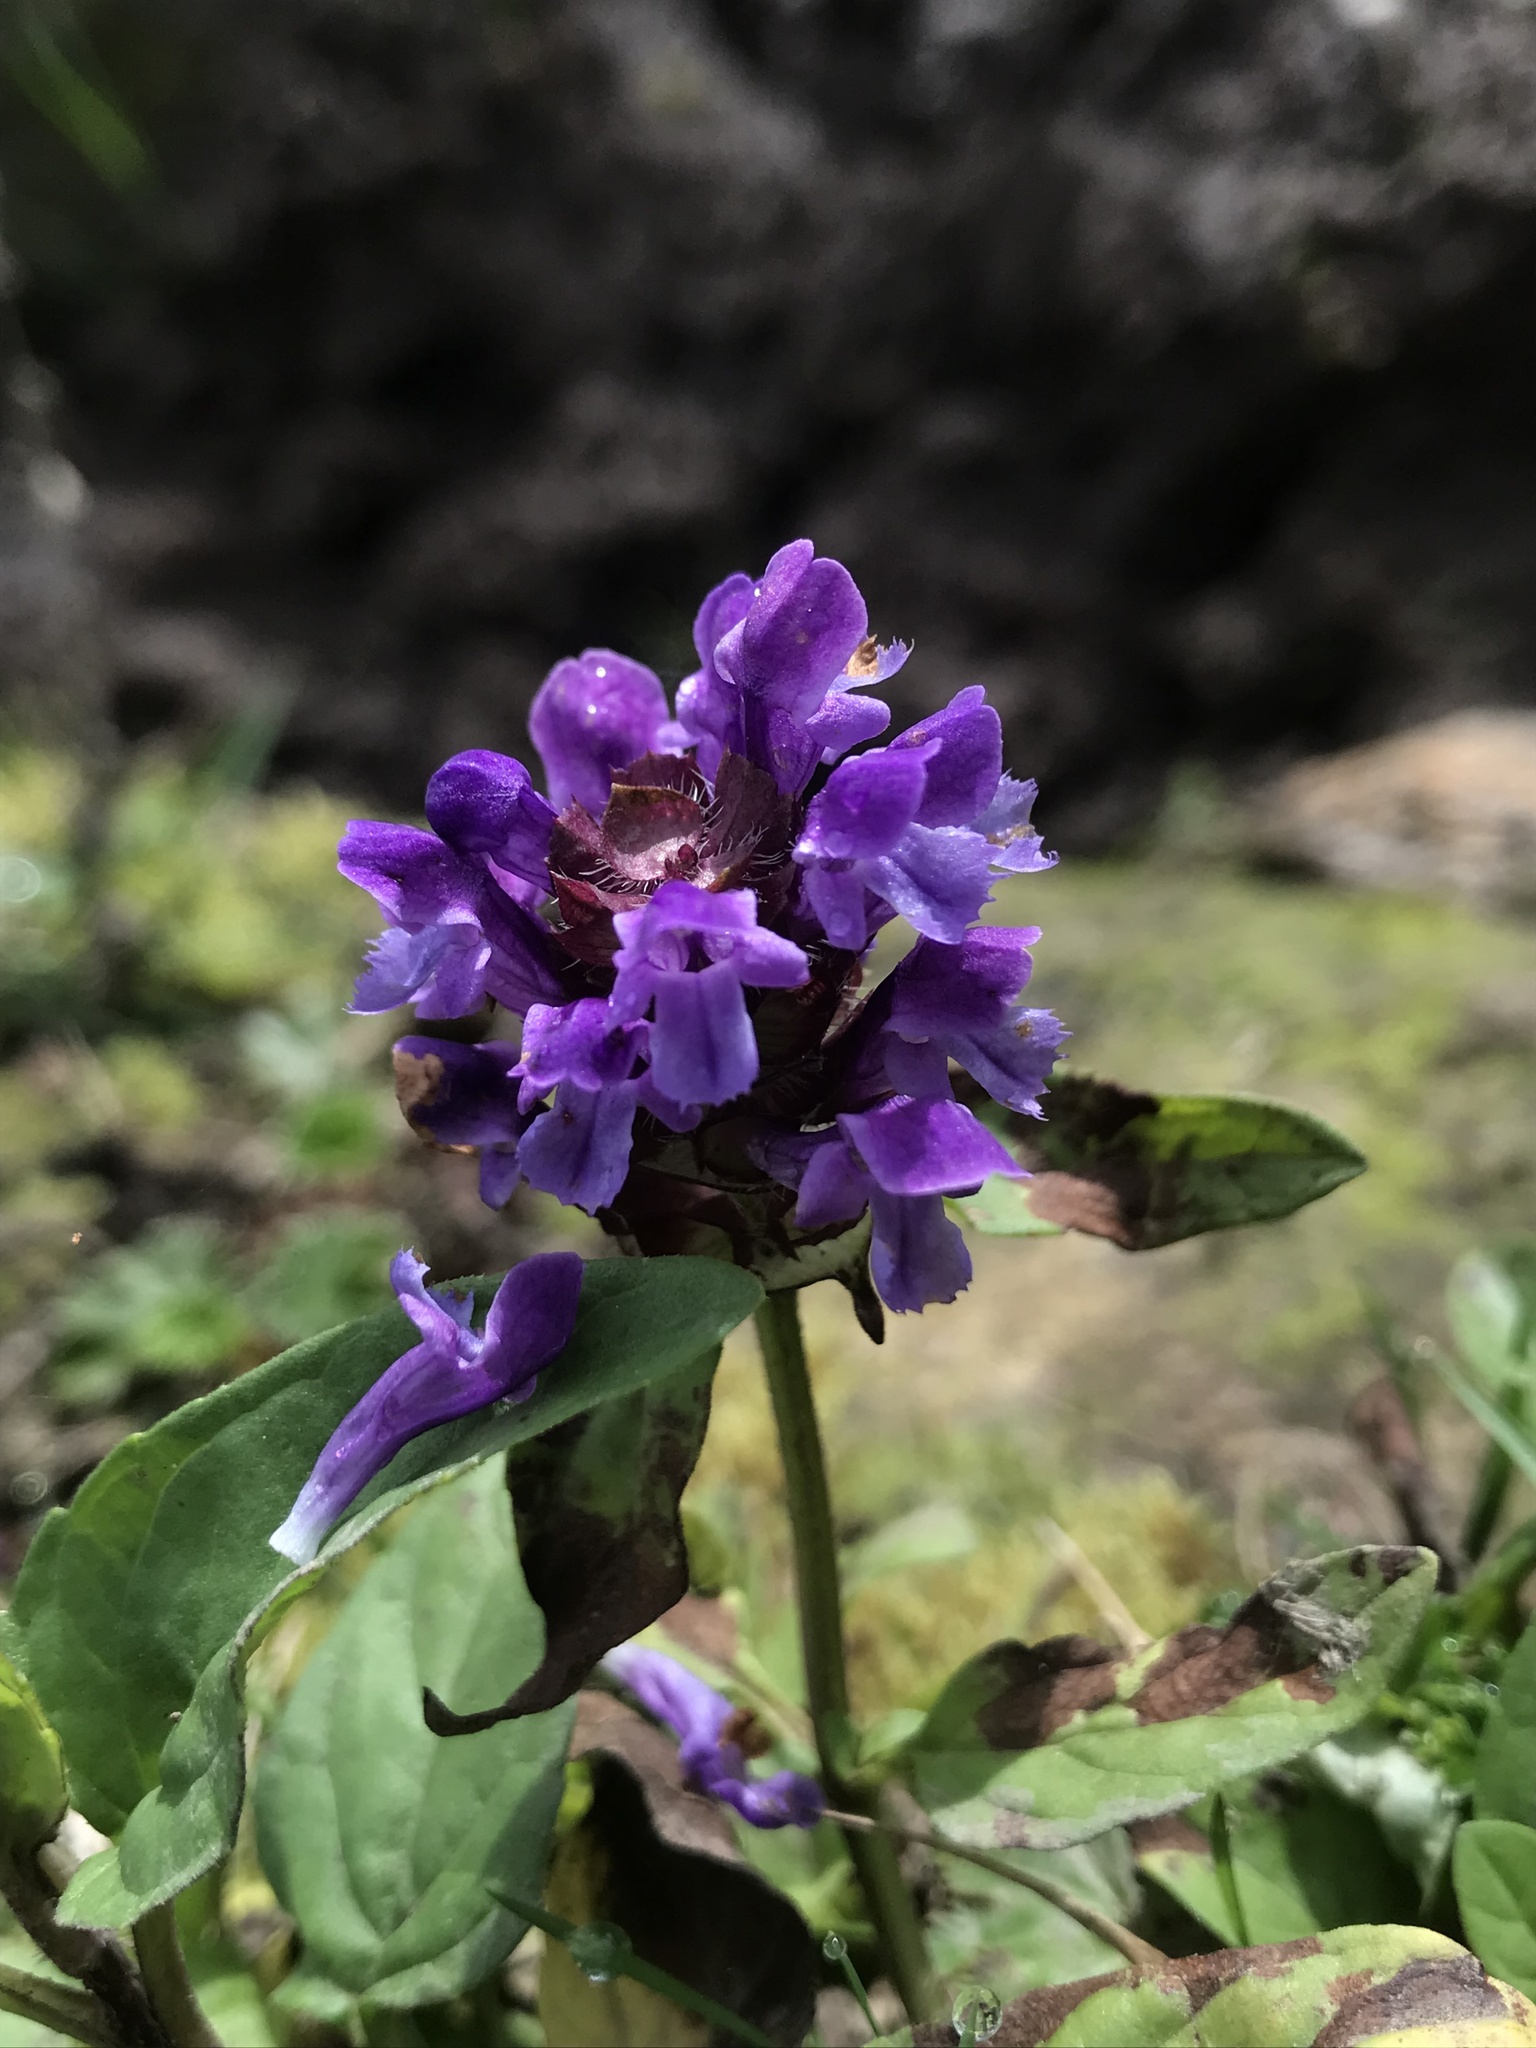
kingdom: Plantae
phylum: Tracheophyta
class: Magnoliopsida
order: Lamiales
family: Lamiaceae
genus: Prunella
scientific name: Prunella vulgaris
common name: Heal-all
